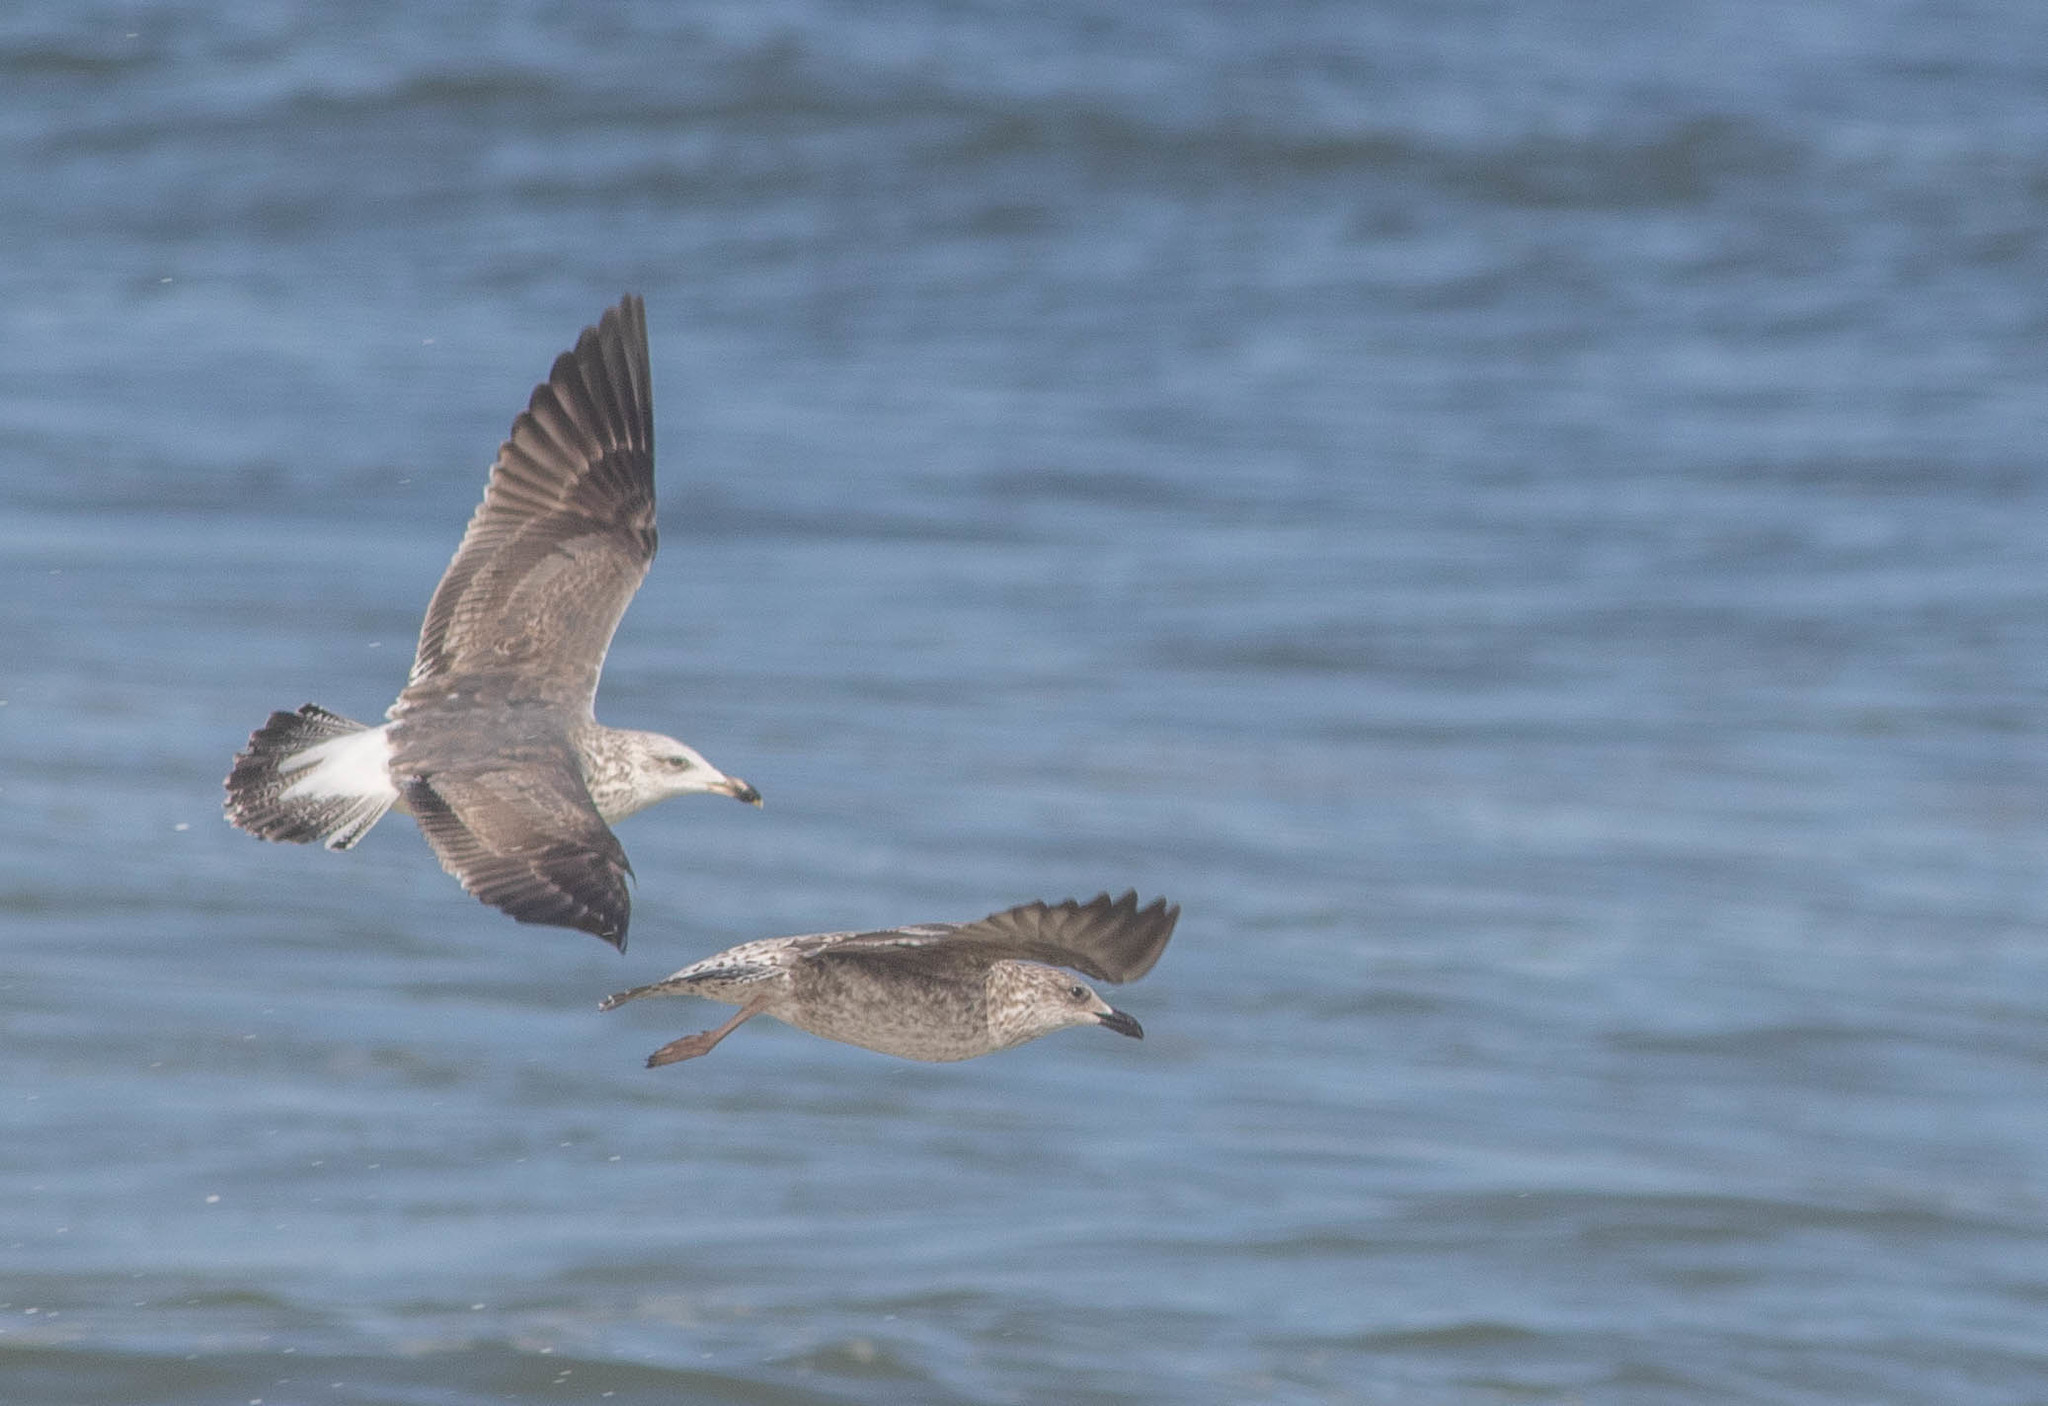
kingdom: Animalia
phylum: Chordata
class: Aves
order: Charadriiformes
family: Laridae
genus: Larus
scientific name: Larus fuscus
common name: Lesser black-backed gull
